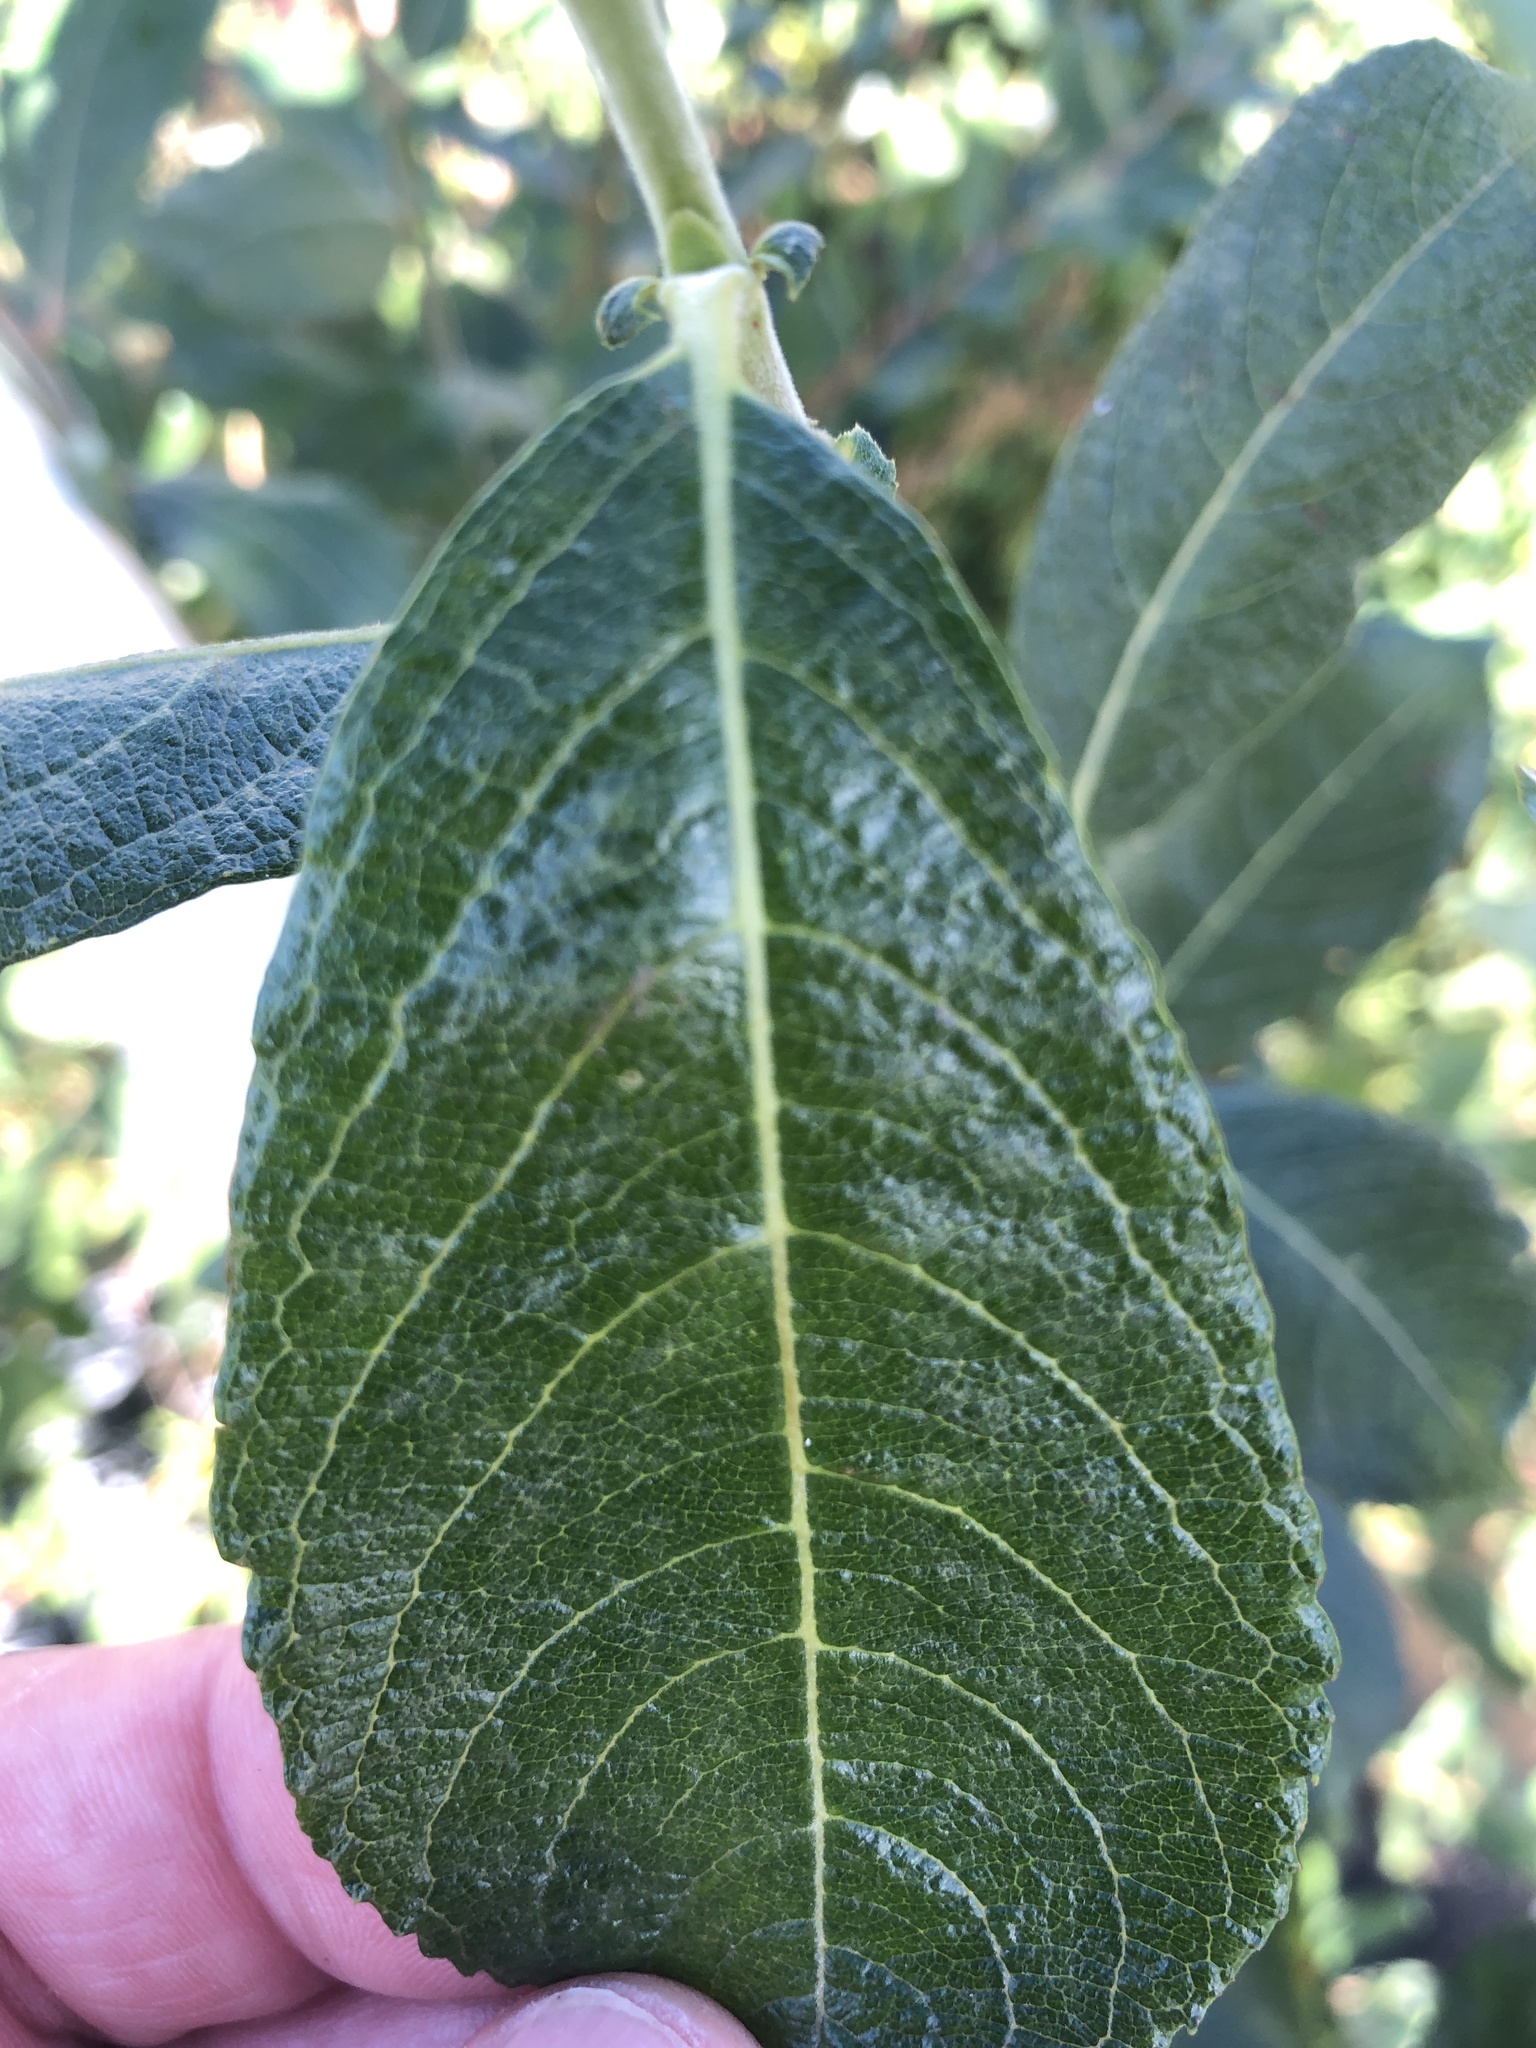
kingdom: Plantae
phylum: Tracheophyta
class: Magnoliopsida
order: Malpighiales
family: Salicaceae
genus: Salix
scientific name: Salix cinerea
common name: Common sallow
